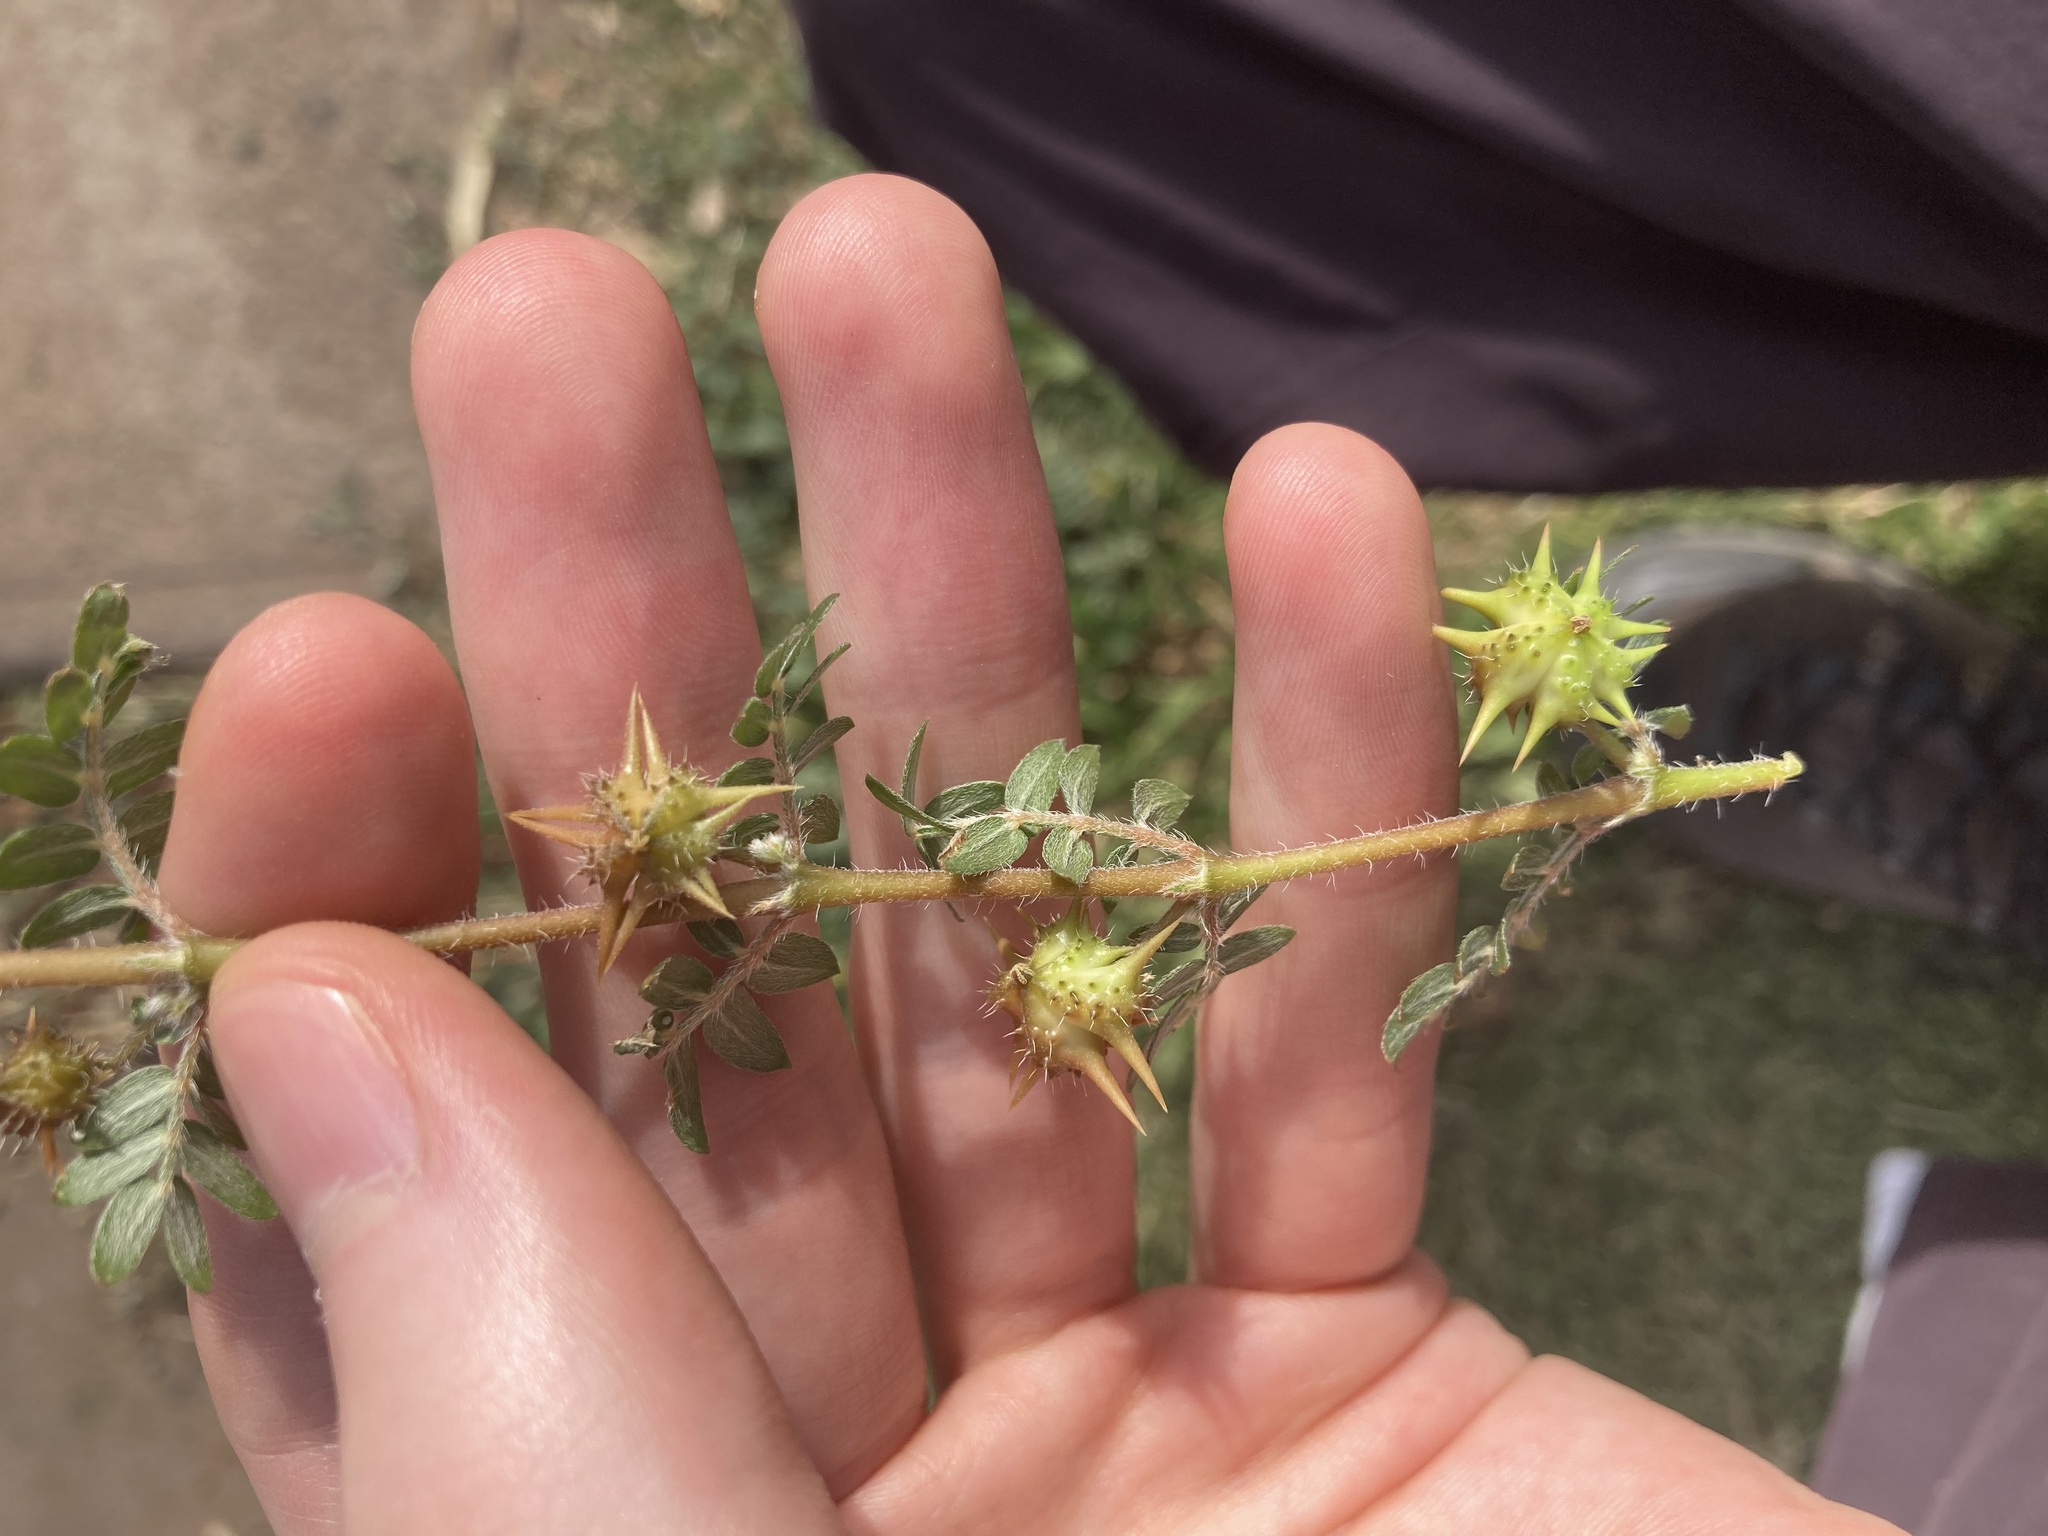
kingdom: Plantae
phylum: Tracheophyta
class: Magnoliopsida
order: Zygophyllales
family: Zygophyllaceae
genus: Tribulus
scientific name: Tribulus terrestris
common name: Puncturevine
